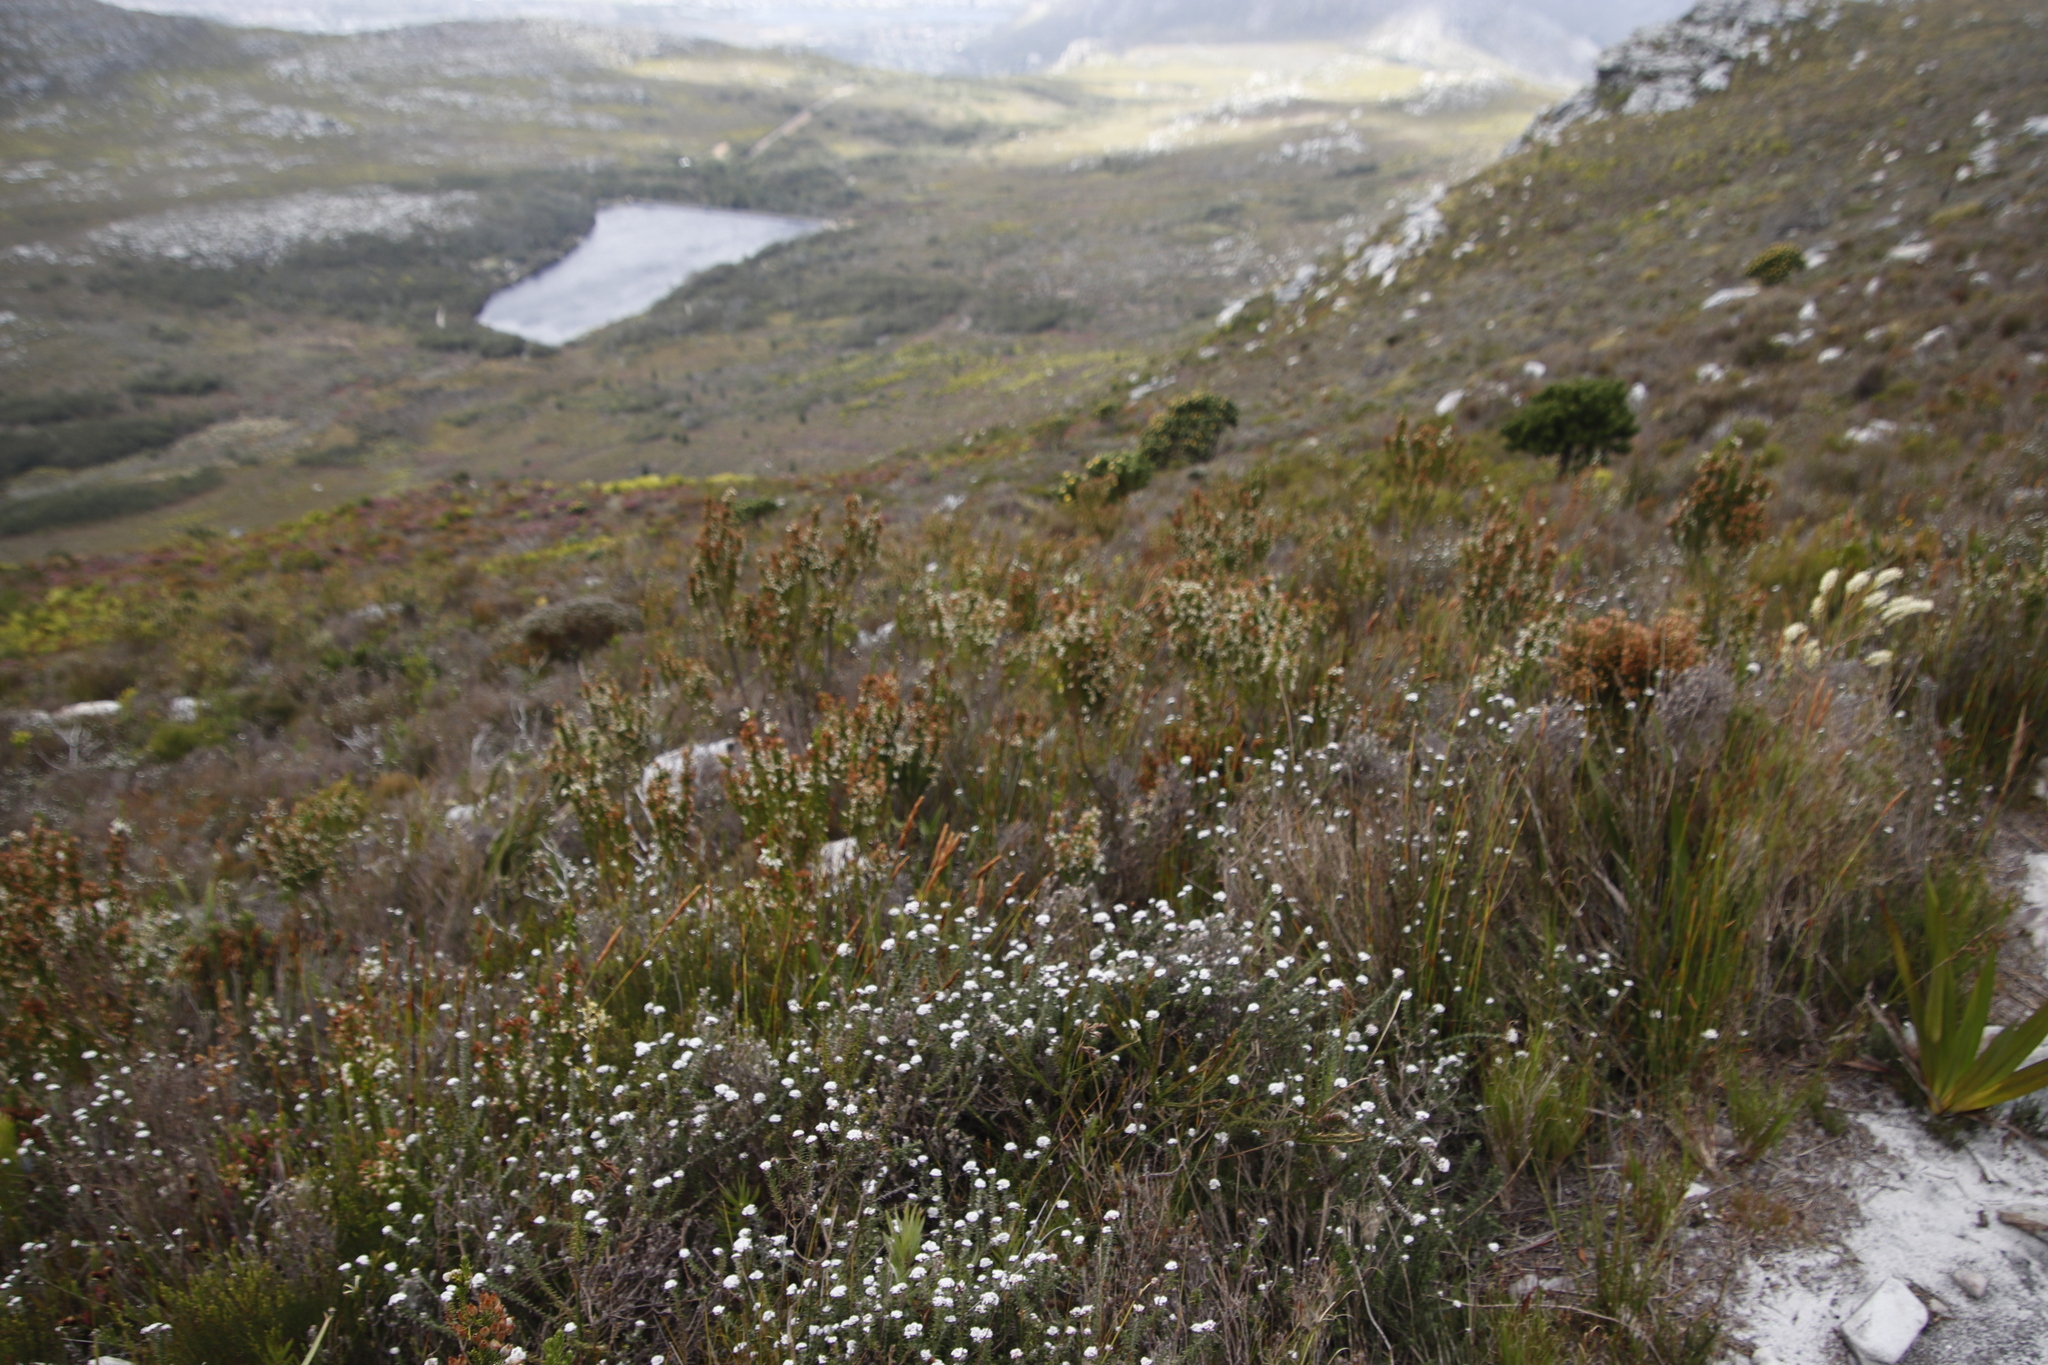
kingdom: Plantae
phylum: Tracheophyta
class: Magnoliopsida
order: Ericales
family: Ericaceae
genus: Erica
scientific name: Erica physodes
